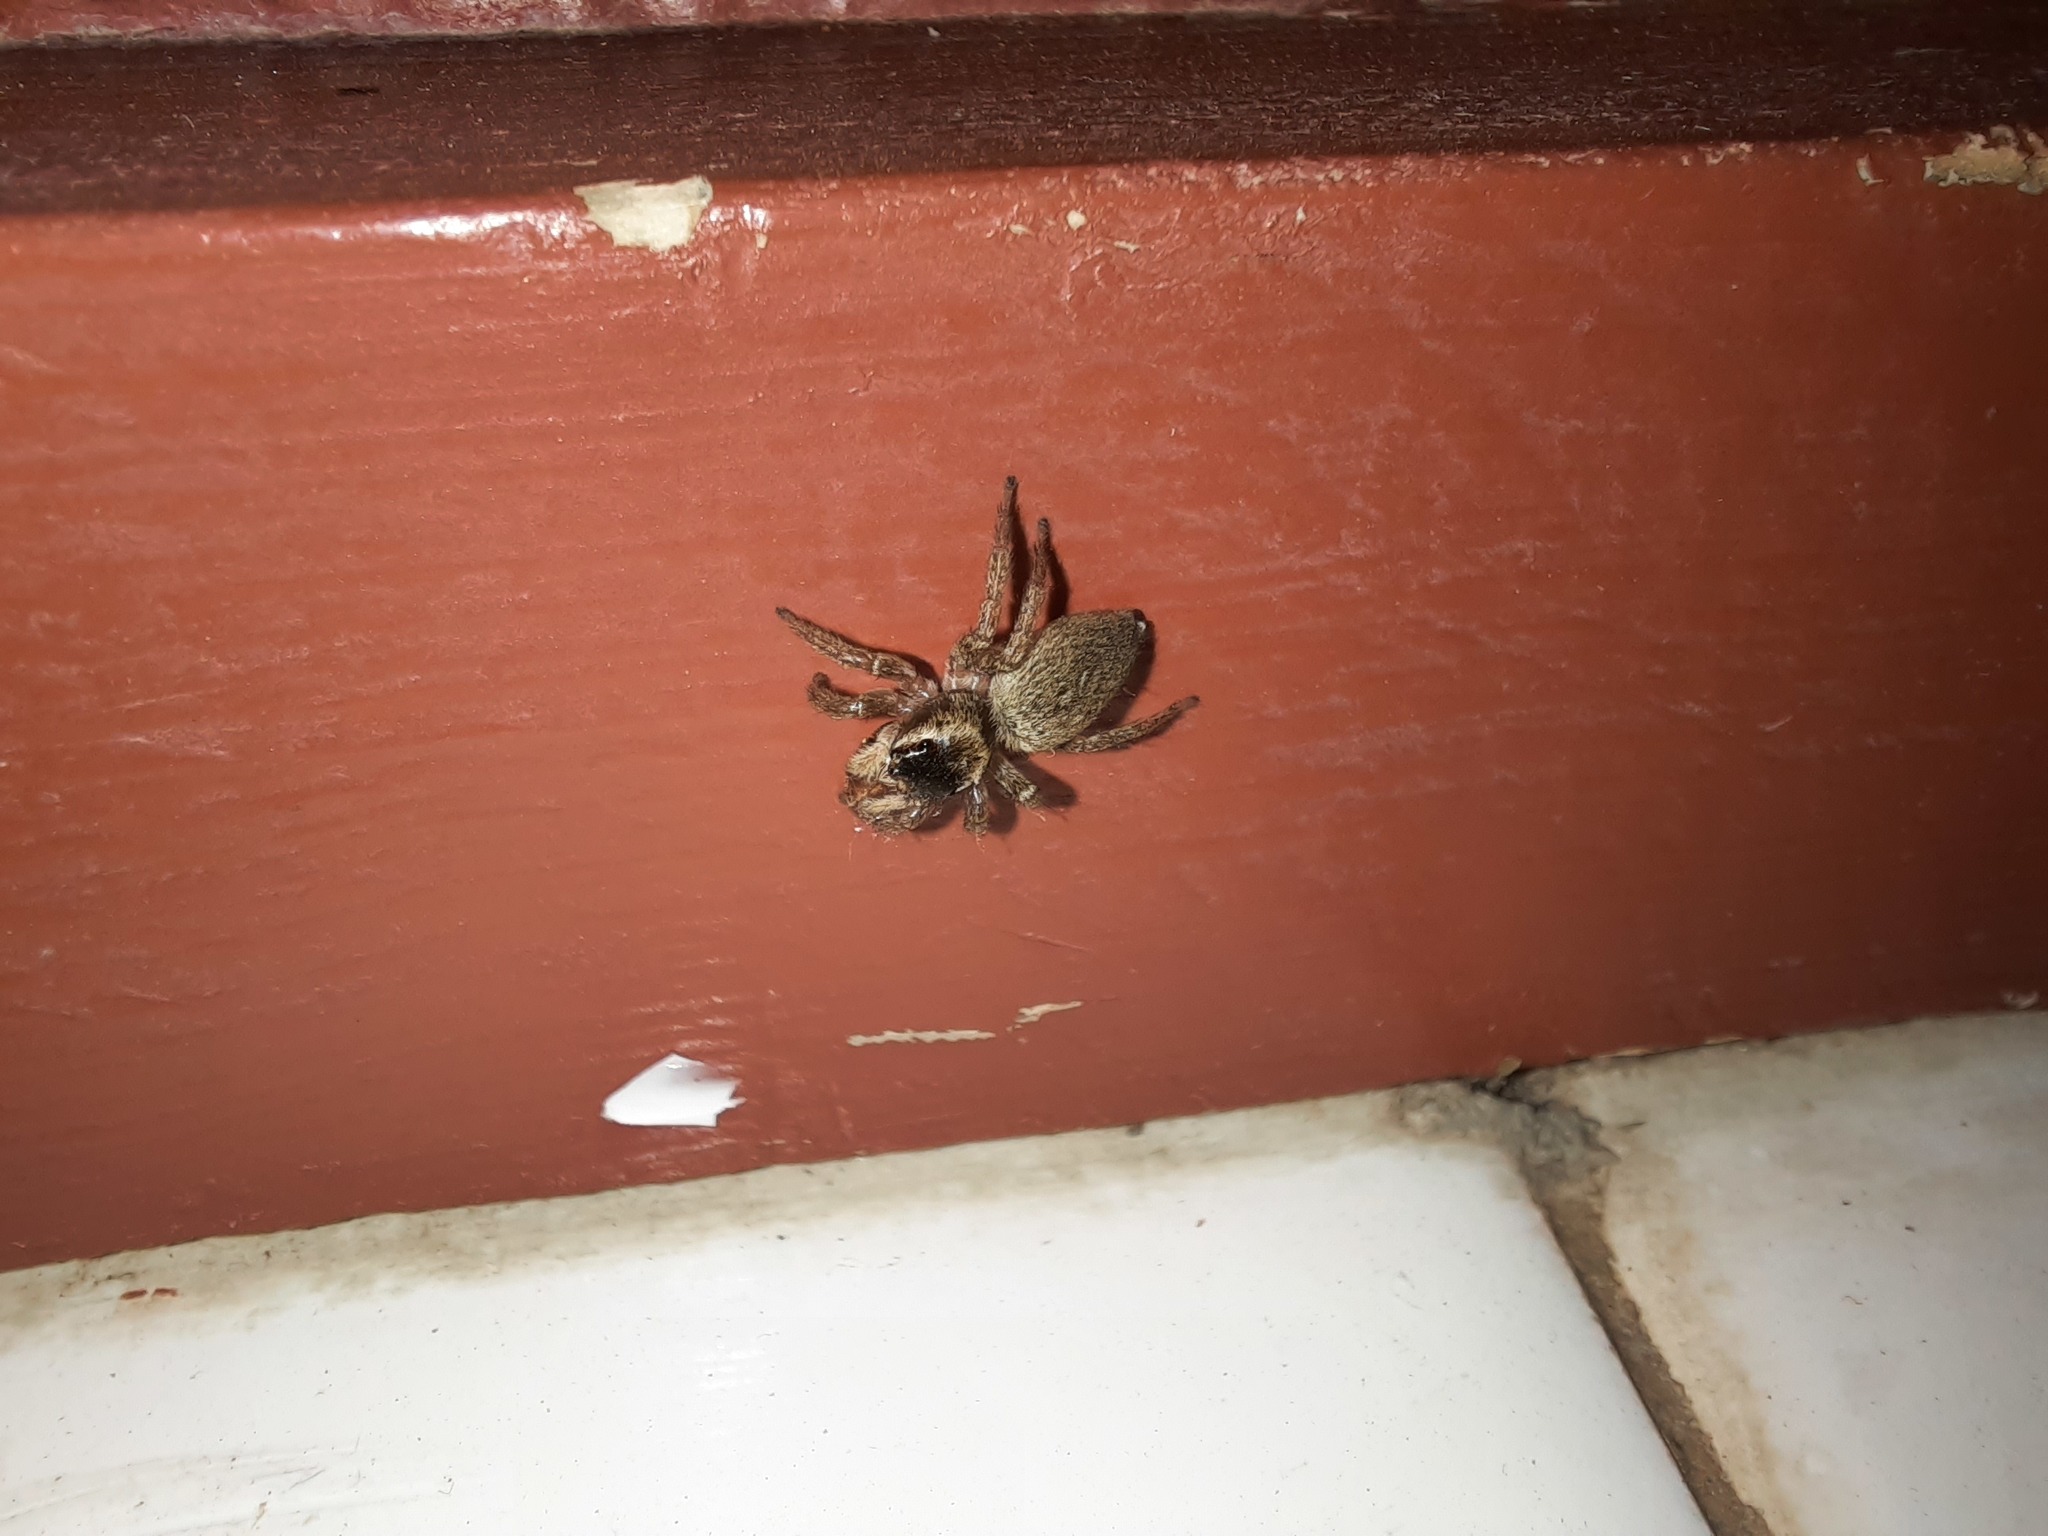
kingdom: Animalia
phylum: Arthropoda
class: Arachnida
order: Araneae
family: Salticidae
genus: Maratus
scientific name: Maratus griseus
